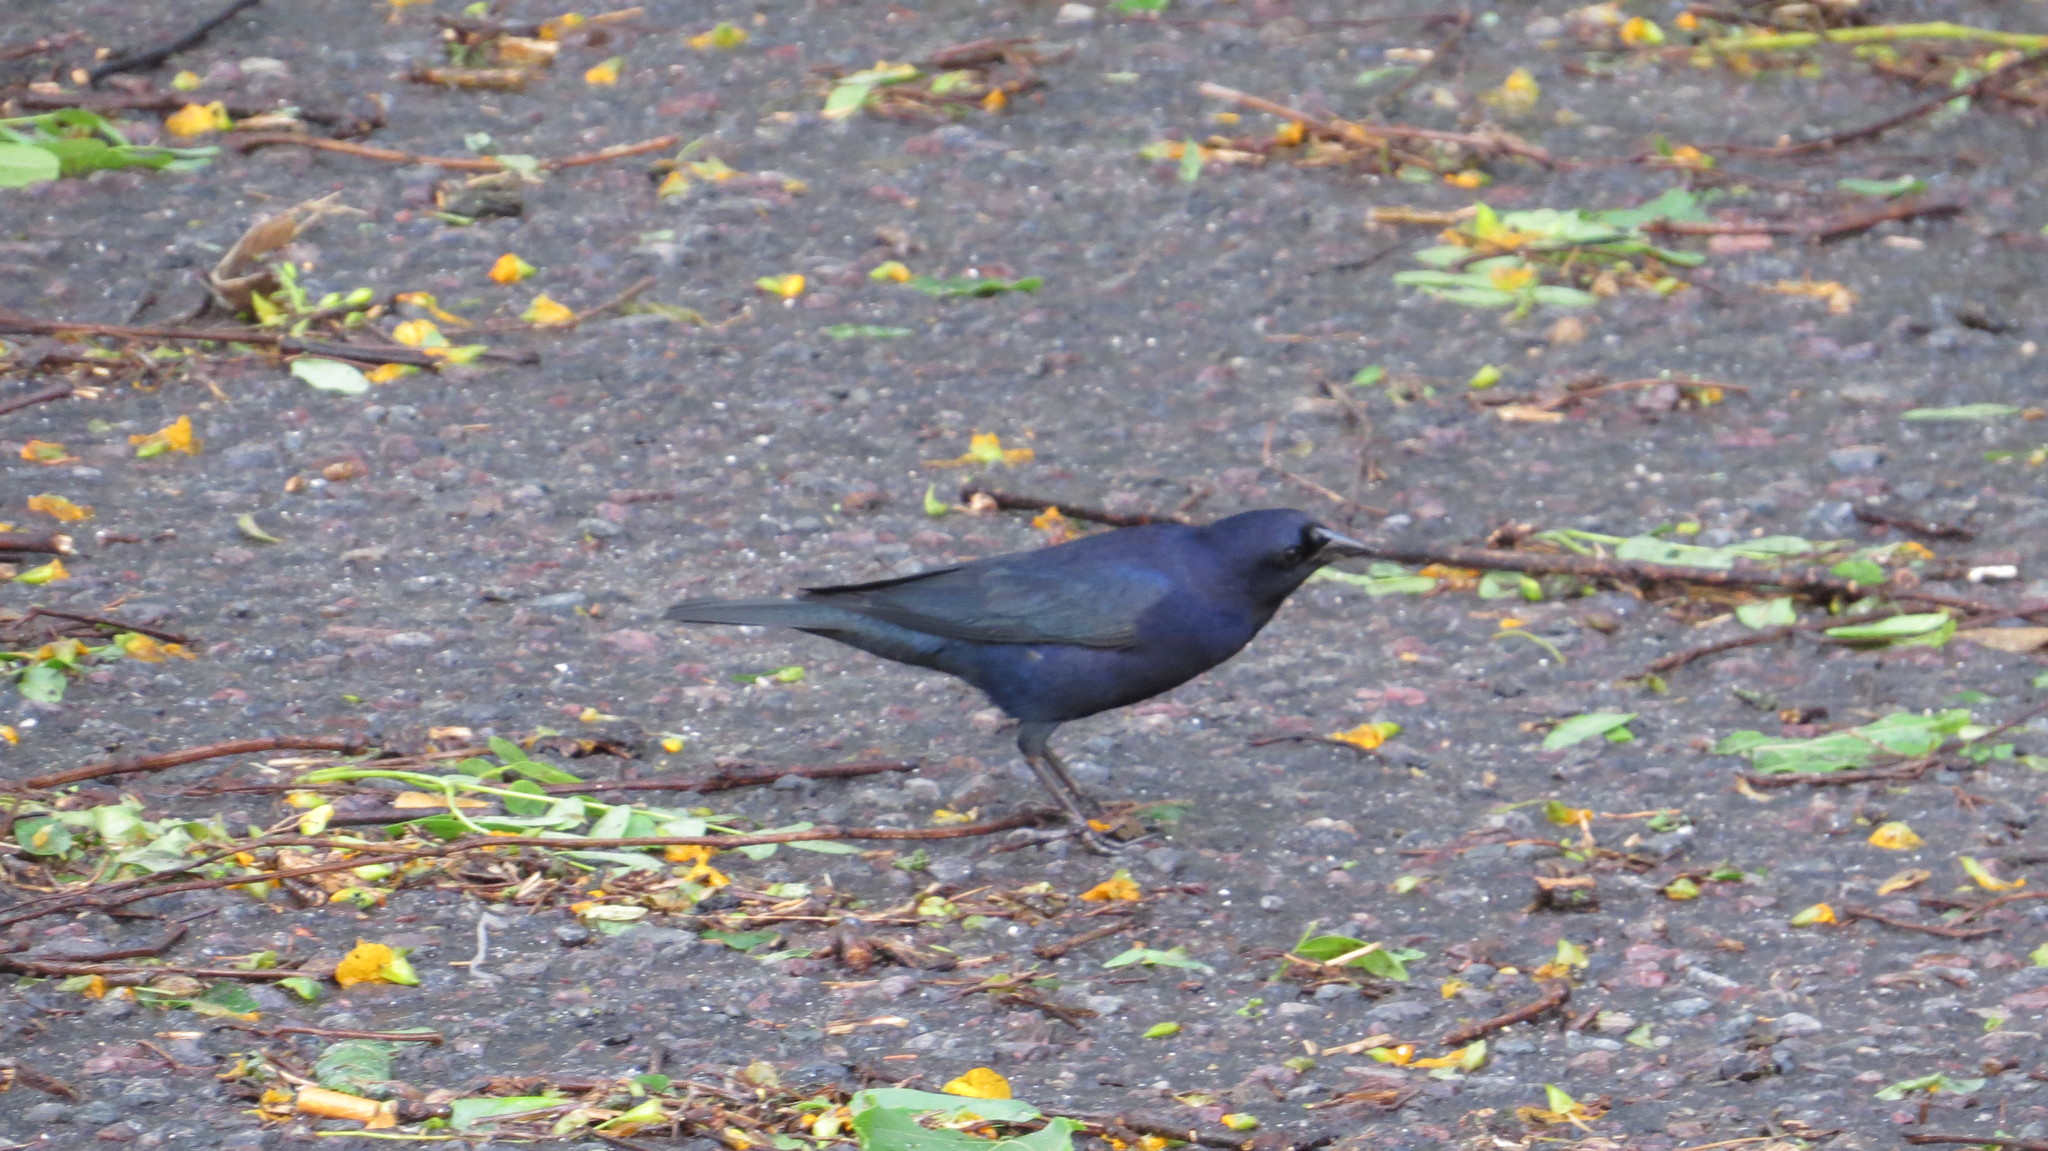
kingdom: Animalia
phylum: Chordata
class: Aves
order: Passeriformes
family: Icteridae
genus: Molothrus
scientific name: Molothrus bonariensis
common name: Shiny cowbird
